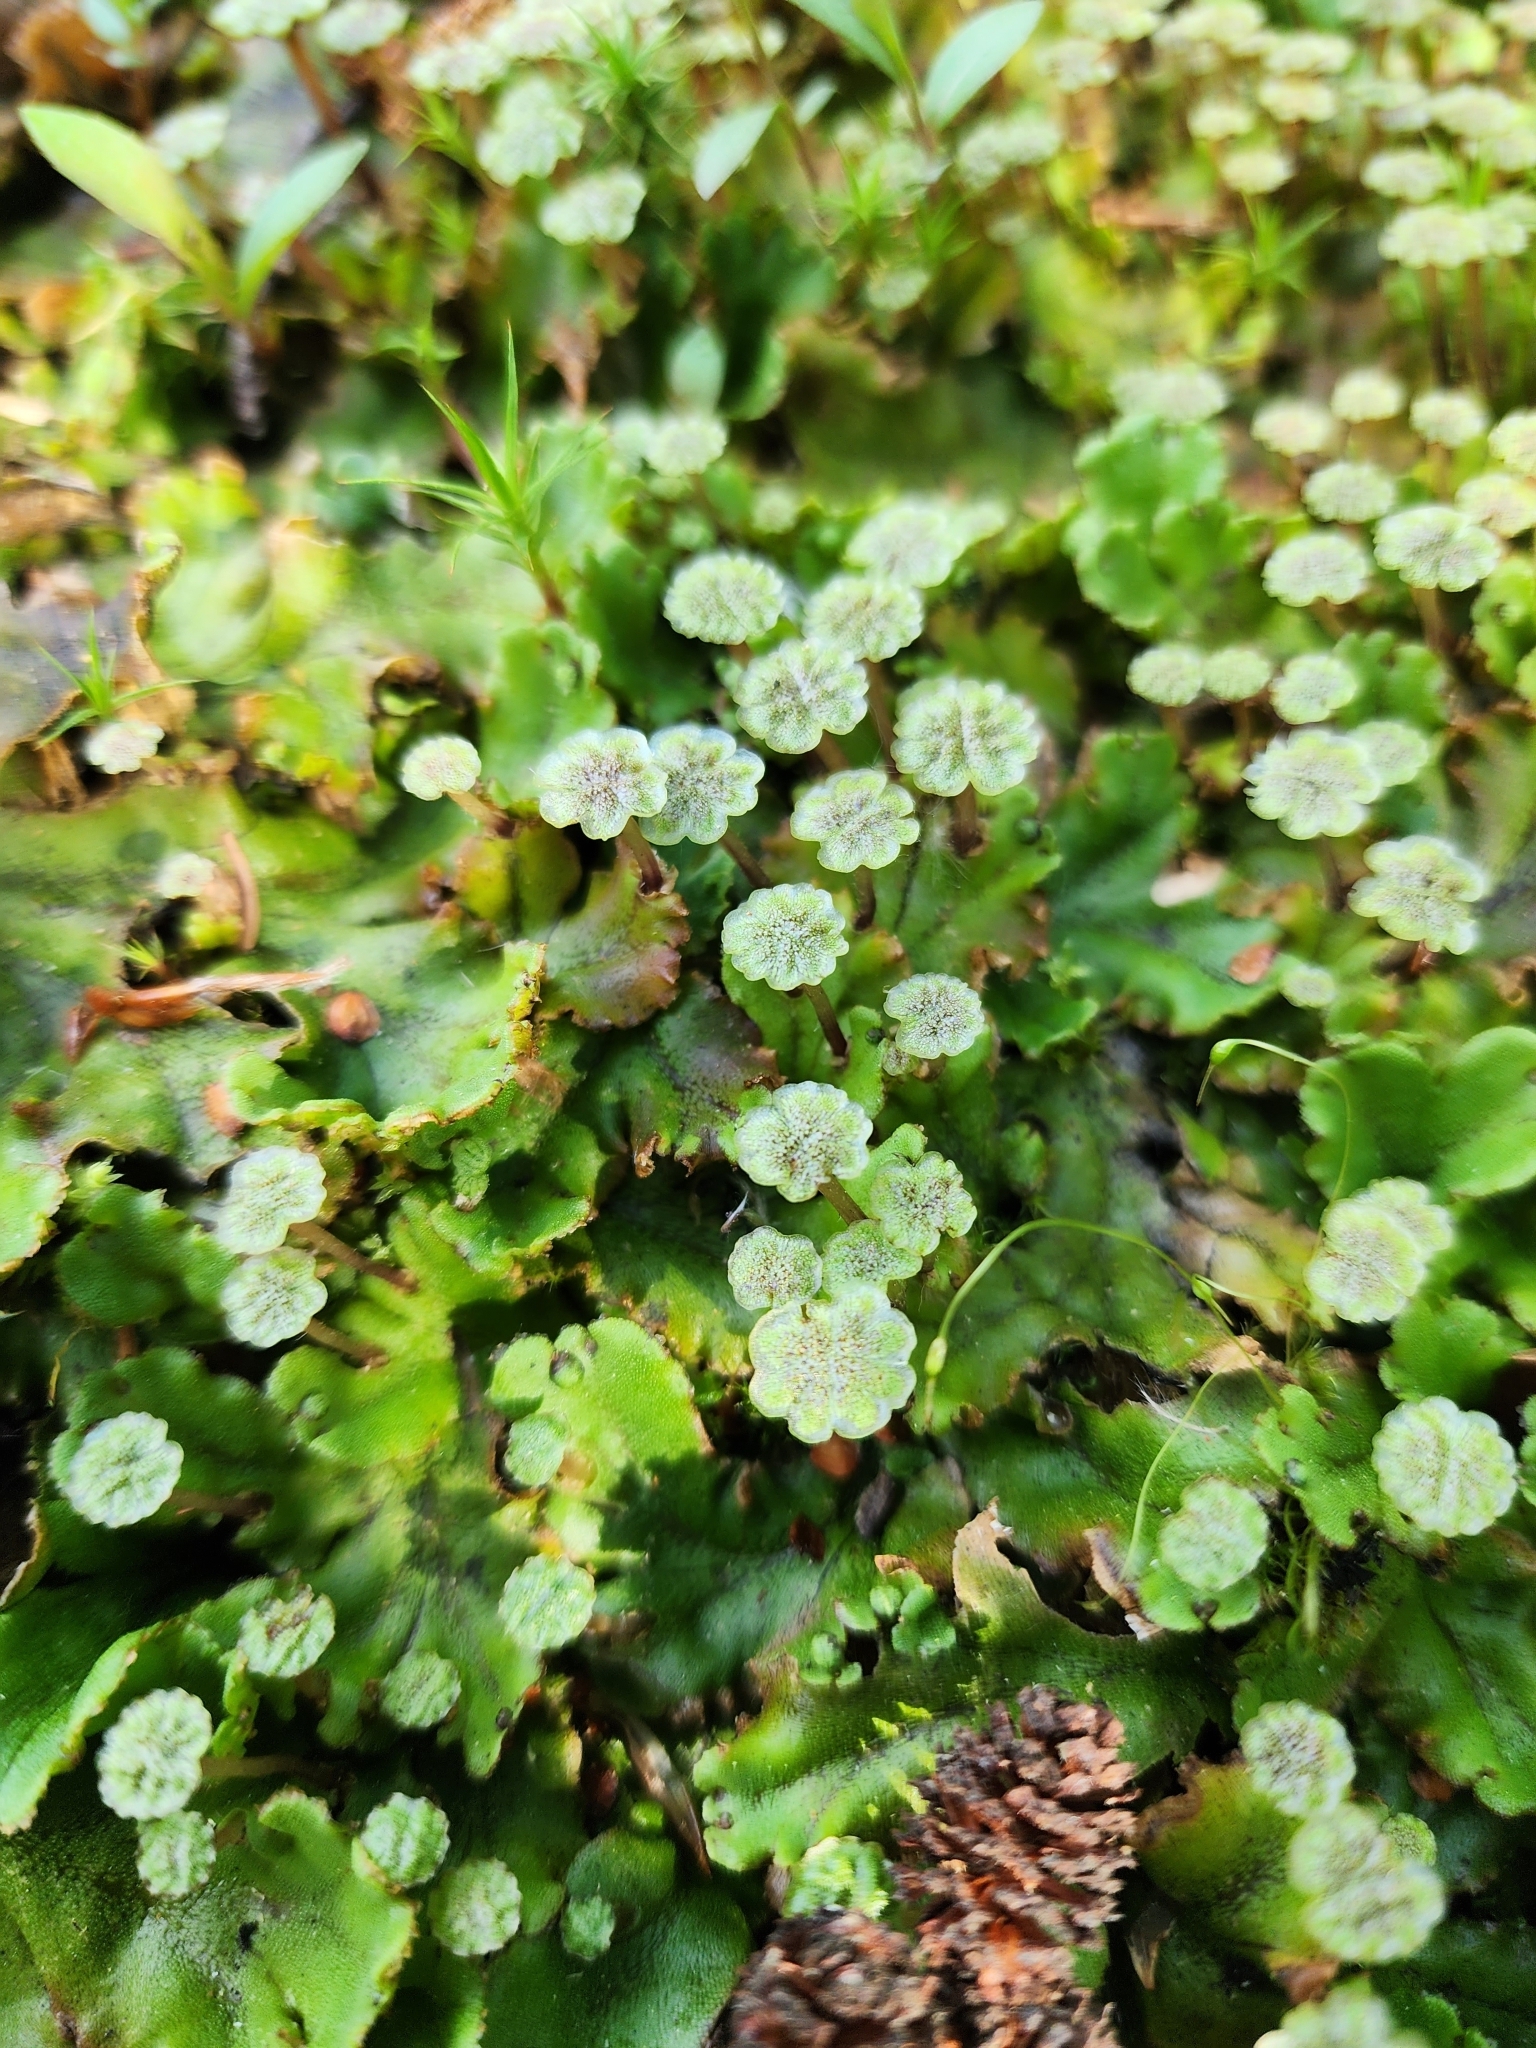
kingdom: Plantae
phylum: Marchantiophyta
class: Marchantiopsida
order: Marchantiales
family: Marchantiaceae
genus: Marchantia
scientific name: Marchantia polymorpha
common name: Common liverwort
